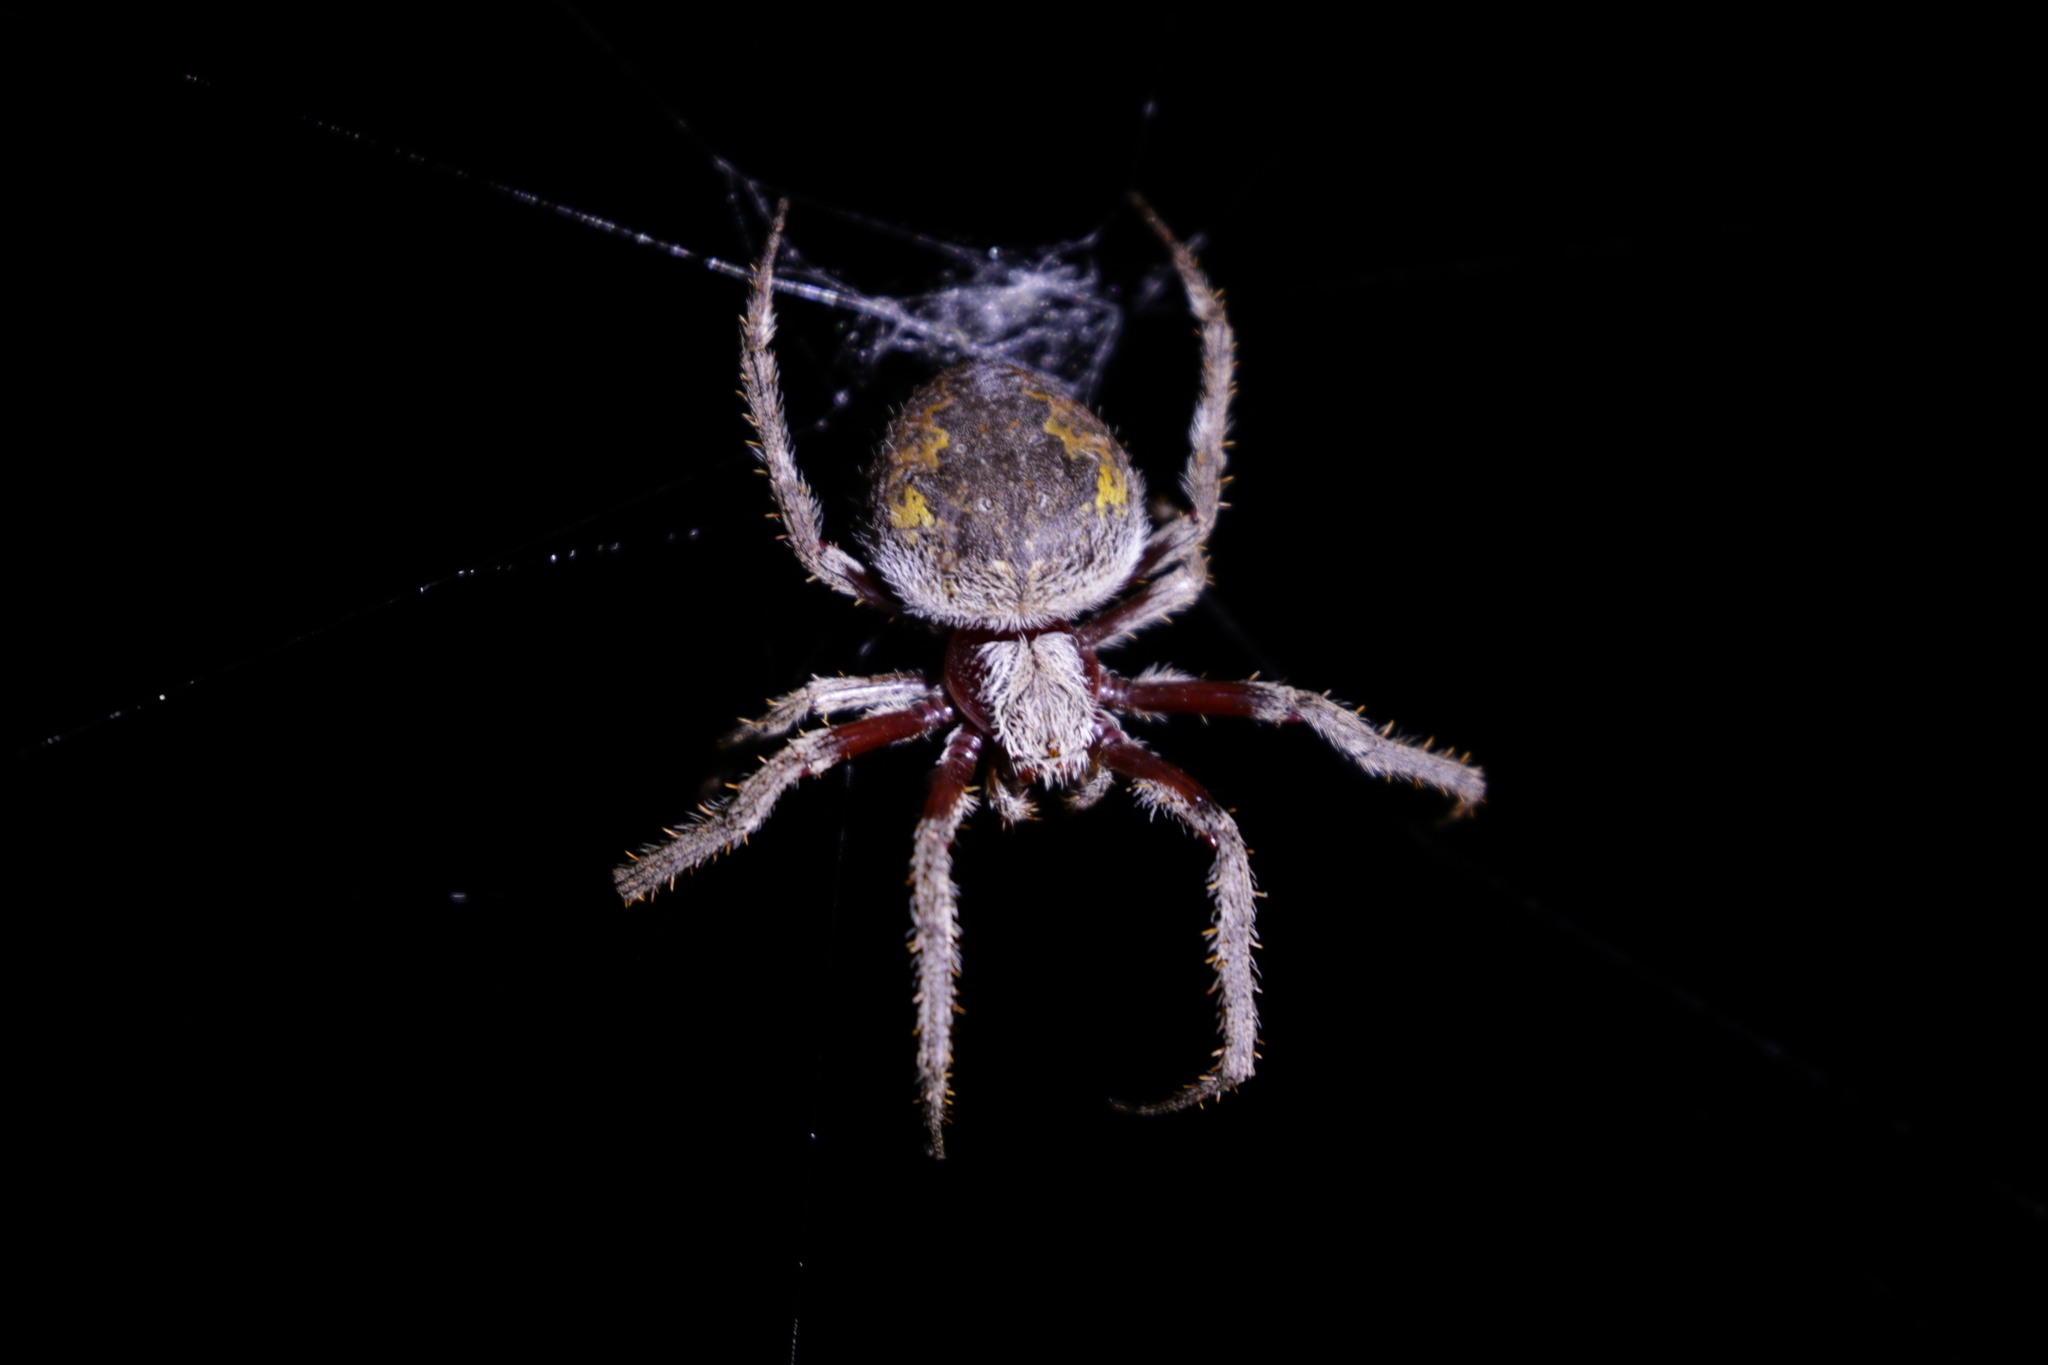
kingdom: Animalia
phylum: Arthropoda
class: Arachnida
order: Araneae
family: Araneidae
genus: Hortophora
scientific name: Hortophora biapicata
